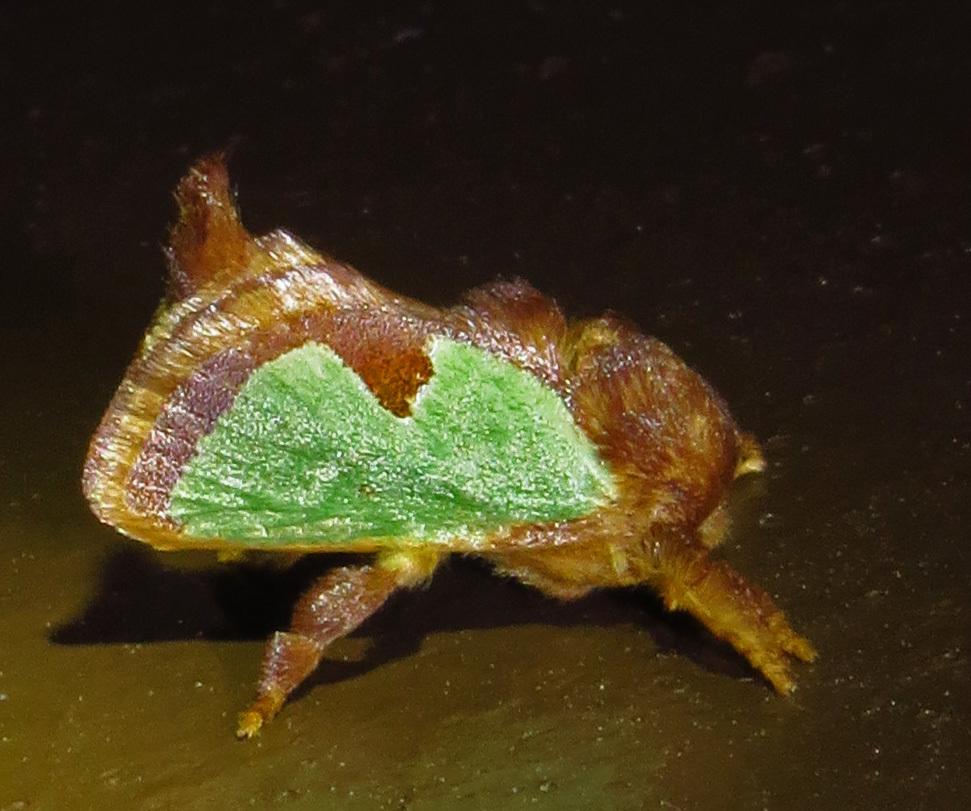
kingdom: Animalia
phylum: Arthropoda
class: Insecta
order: Lepidoptera
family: Limacodidae
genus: Euclea
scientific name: Euclea incisa
